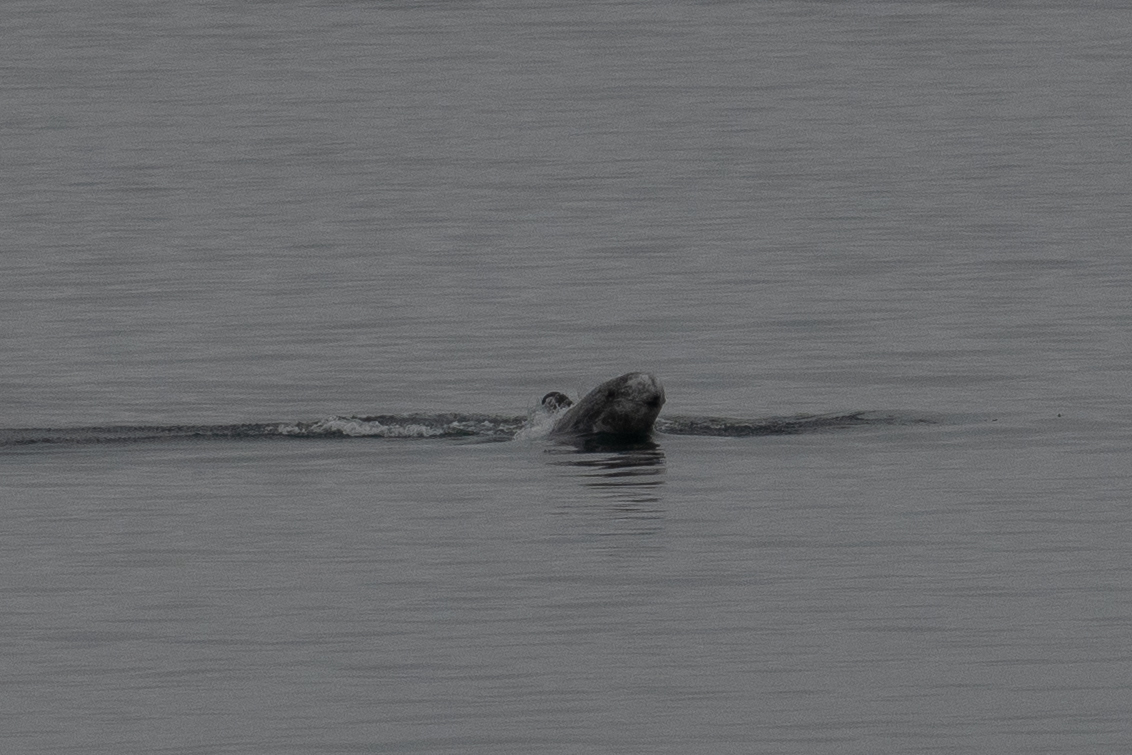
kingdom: Animalia
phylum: Chordata
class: Mammalia
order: Cetacea
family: Delphinidae
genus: Grampus
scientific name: Grampus griseus
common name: Risso's dolphin
